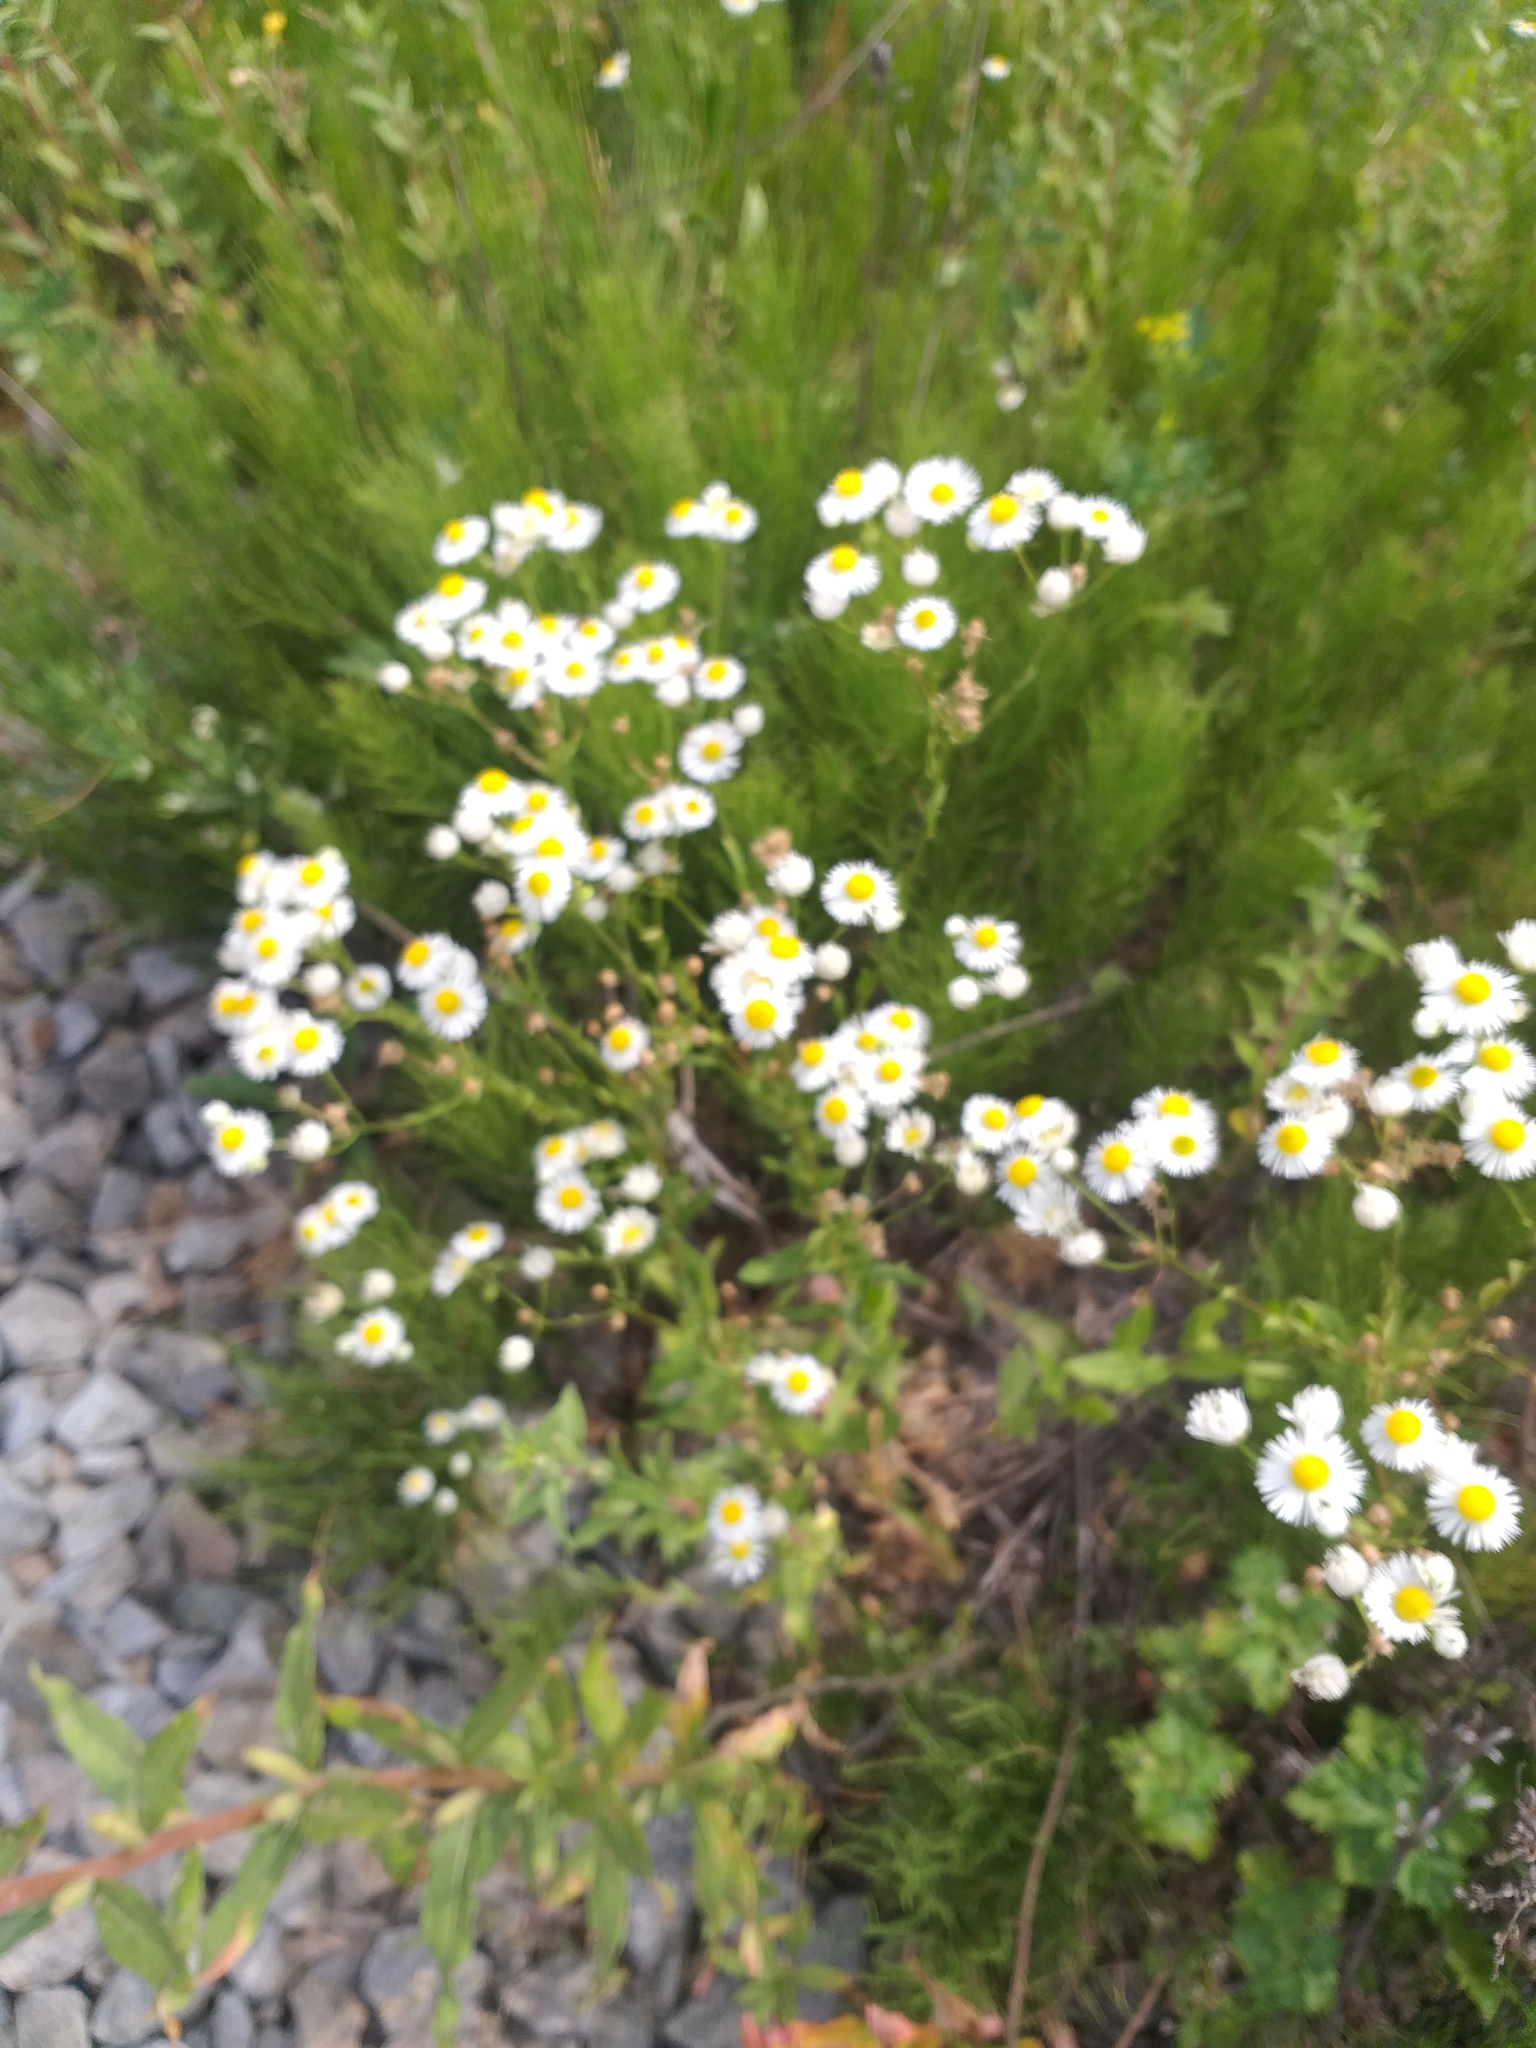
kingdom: Plantae
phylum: Tracheophyta
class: Magnoliopsida
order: Asterales
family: Asteraceae
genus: Erigeron
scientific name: Erigeron annuus
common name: Tall fleabane
